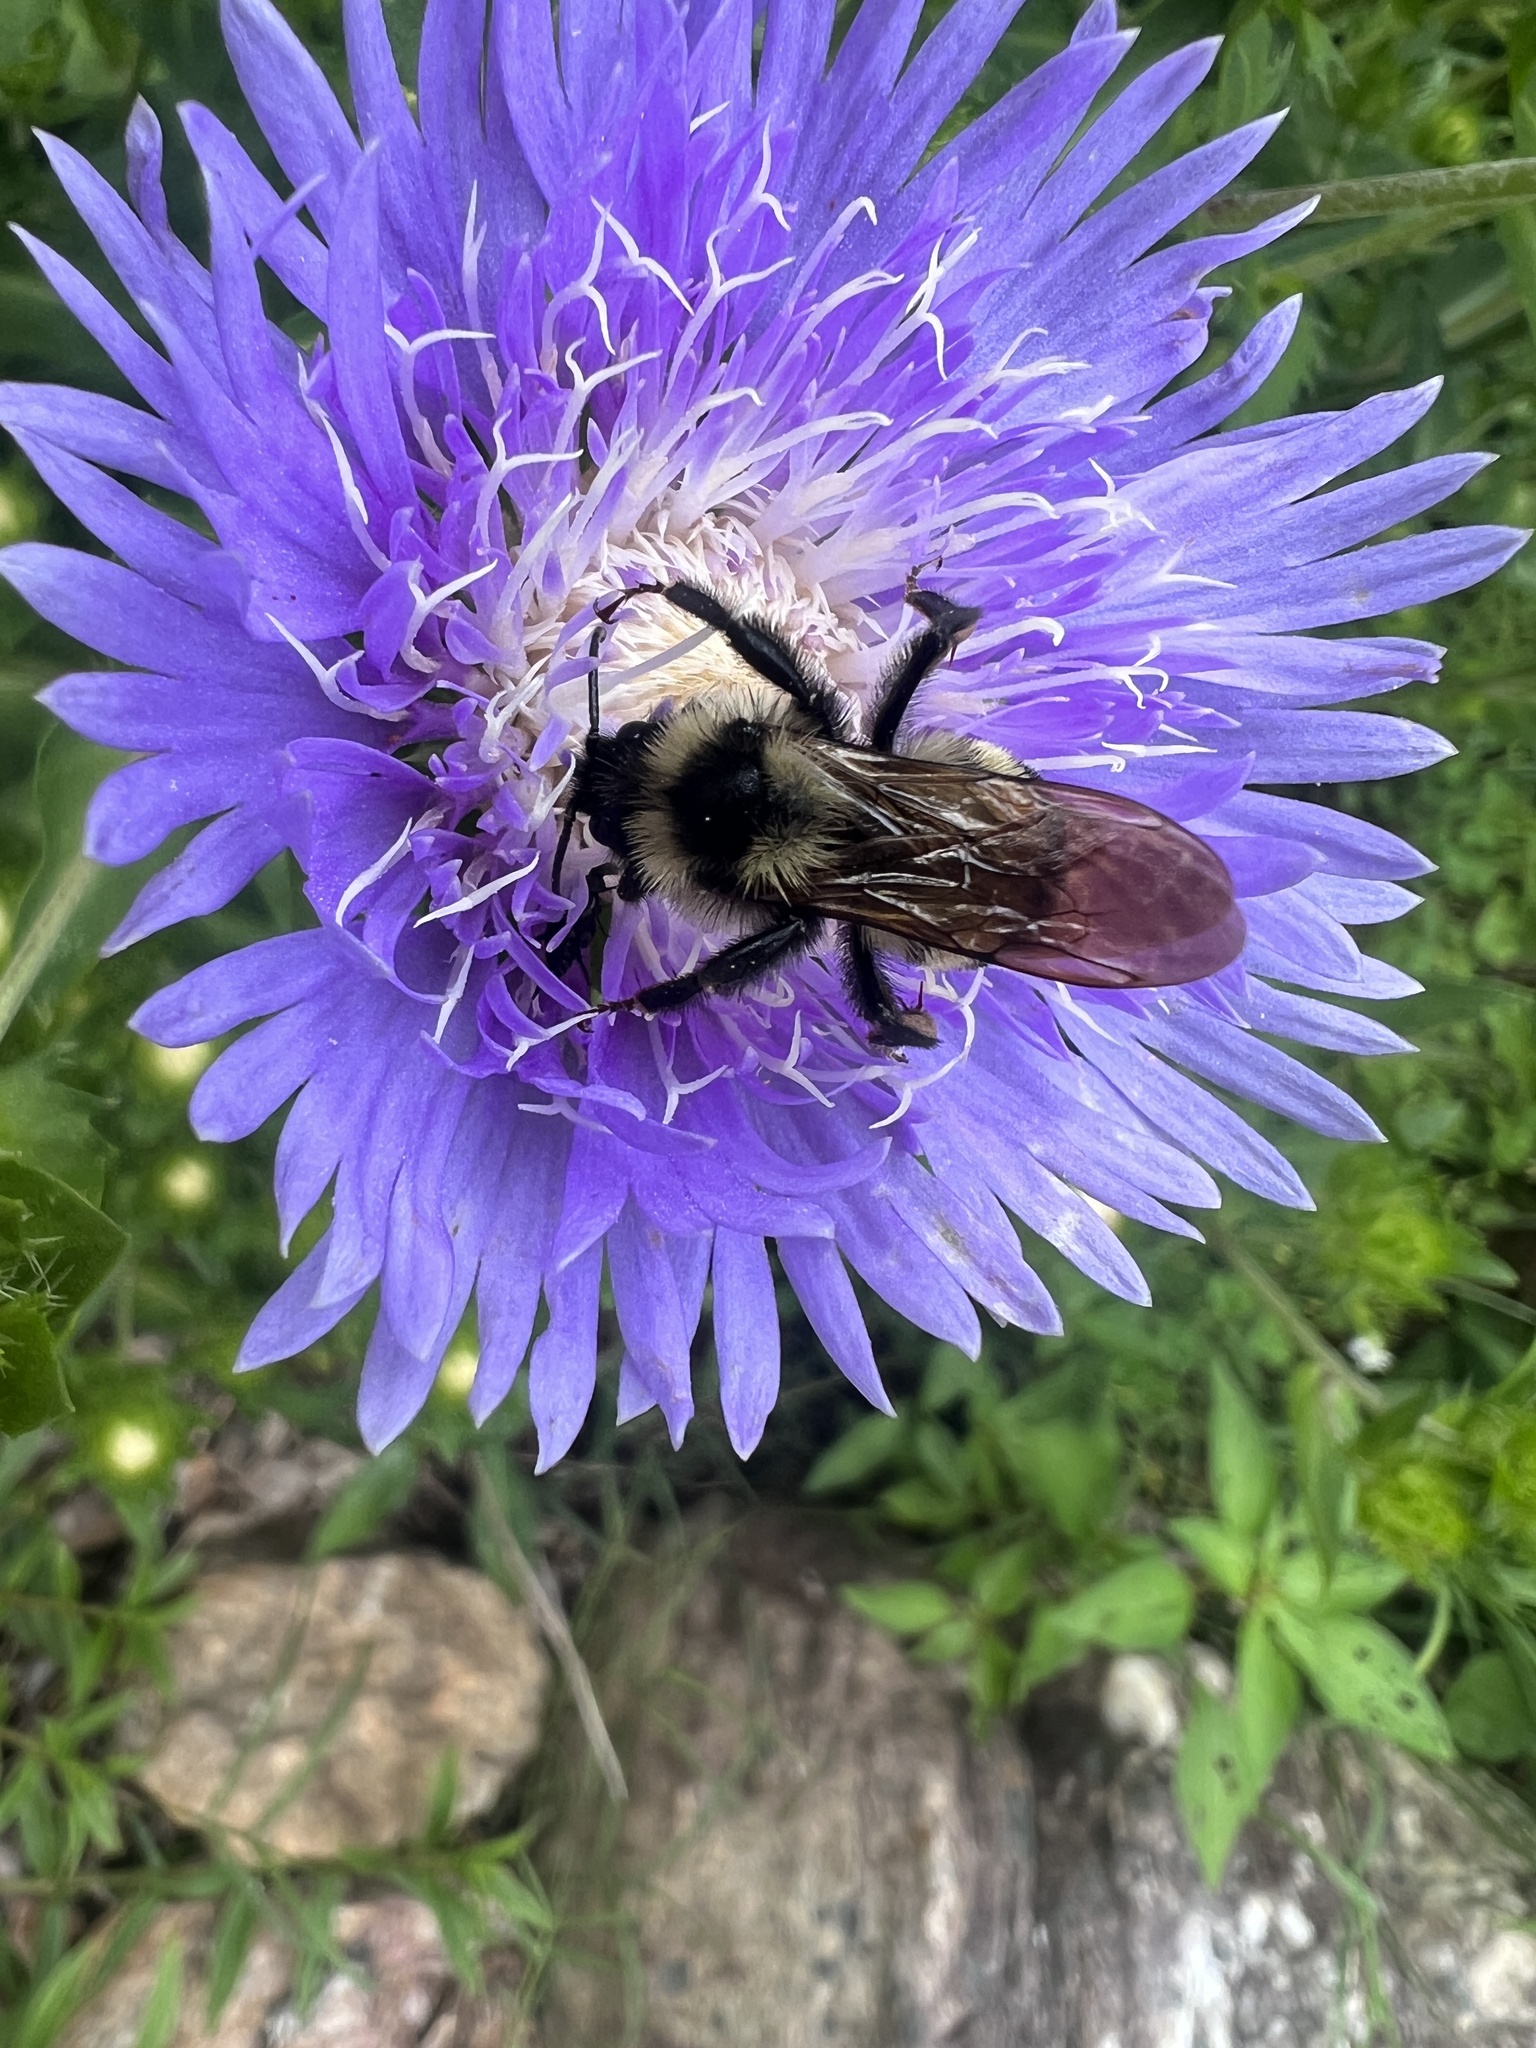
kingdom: Animalia
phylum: Arthropoda
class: Insecta
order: Hymenoptera
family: Apidae
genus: Bombus
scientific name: Bombus citrinus
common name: Lemon cuckoo bumble bee
